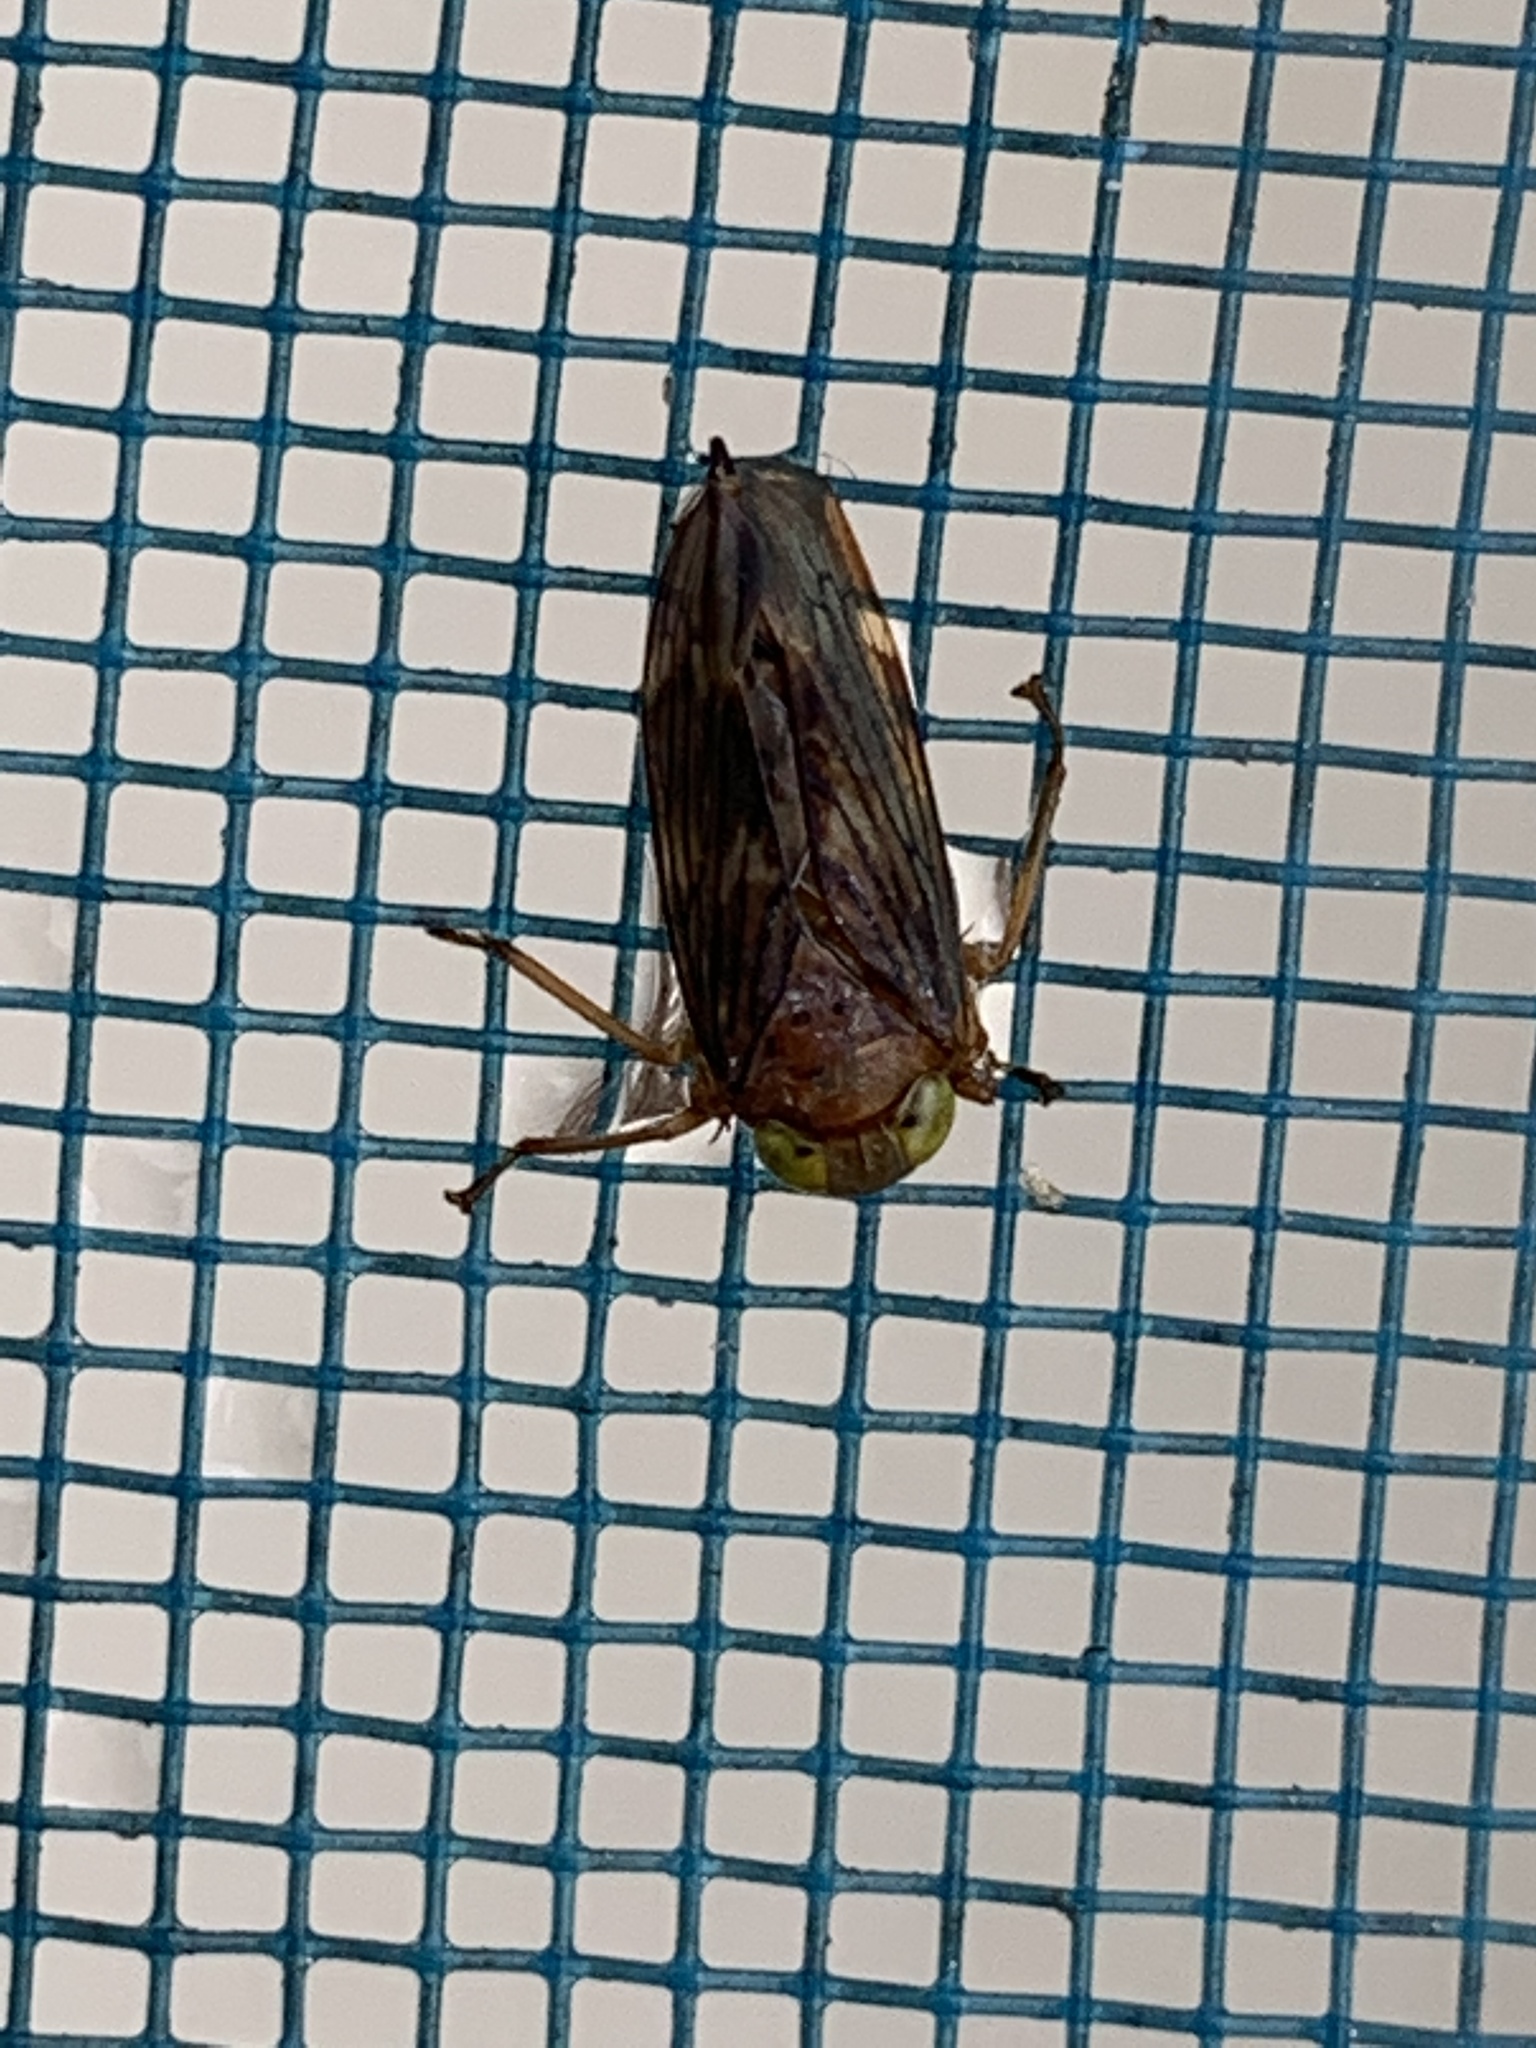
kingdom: Animalia
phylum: Arthropoda
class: Insecta
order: Hemiptera
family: Cicadellidae
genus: Jikradia
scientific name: Jikradia olitoria
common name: Coppery leafhopper
